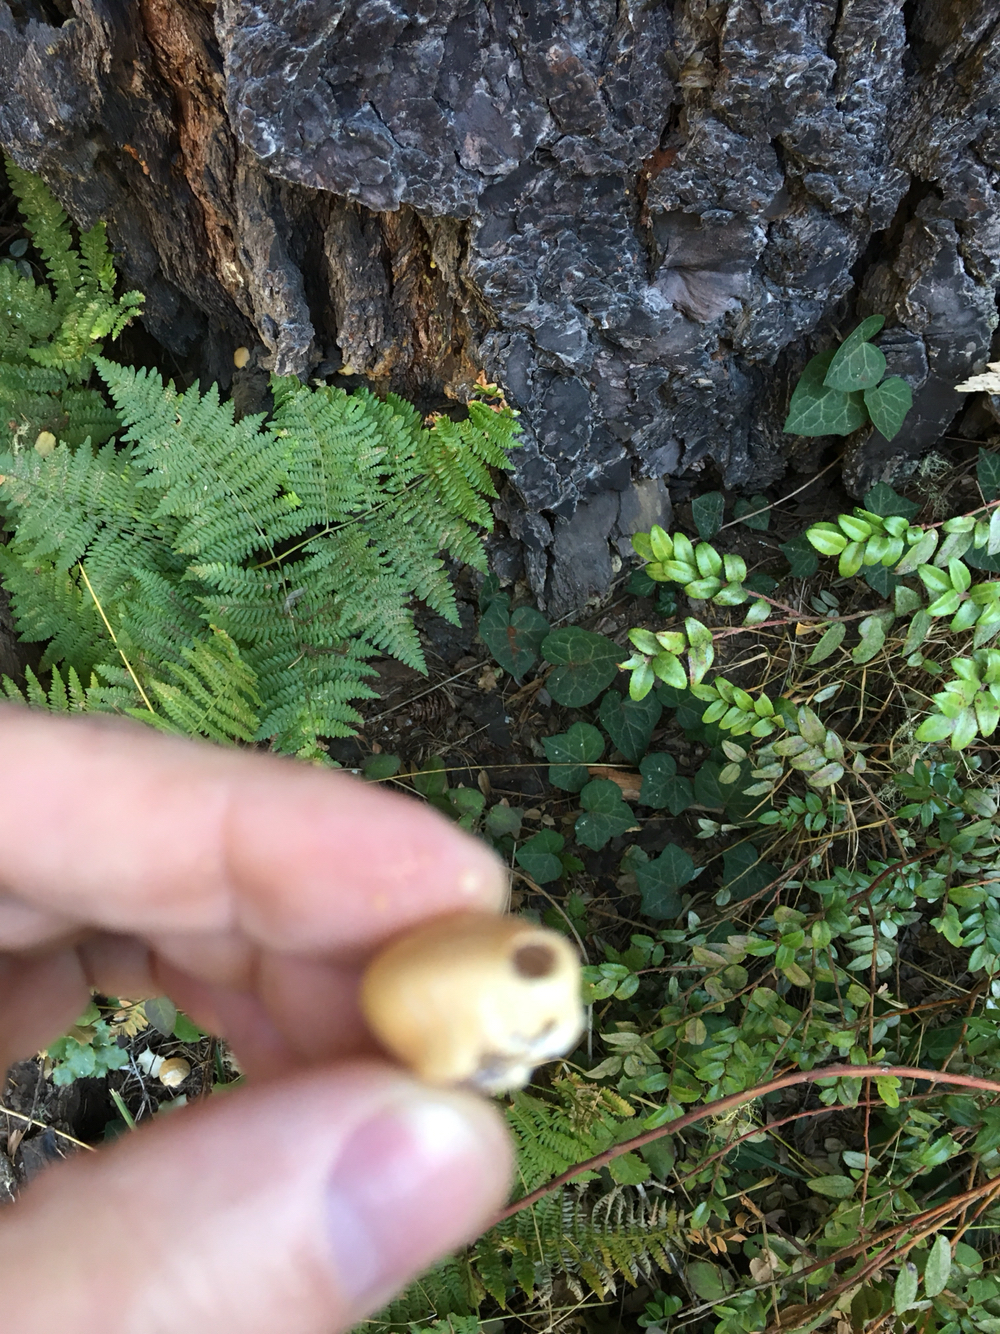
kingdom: Fungi
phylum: Basidiomycota
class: Agaricomycetes
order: Polyporales
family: Polyporaceae
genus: Cryptoporus
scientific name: Cryptoporus volvatus
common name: Veiled polypore
